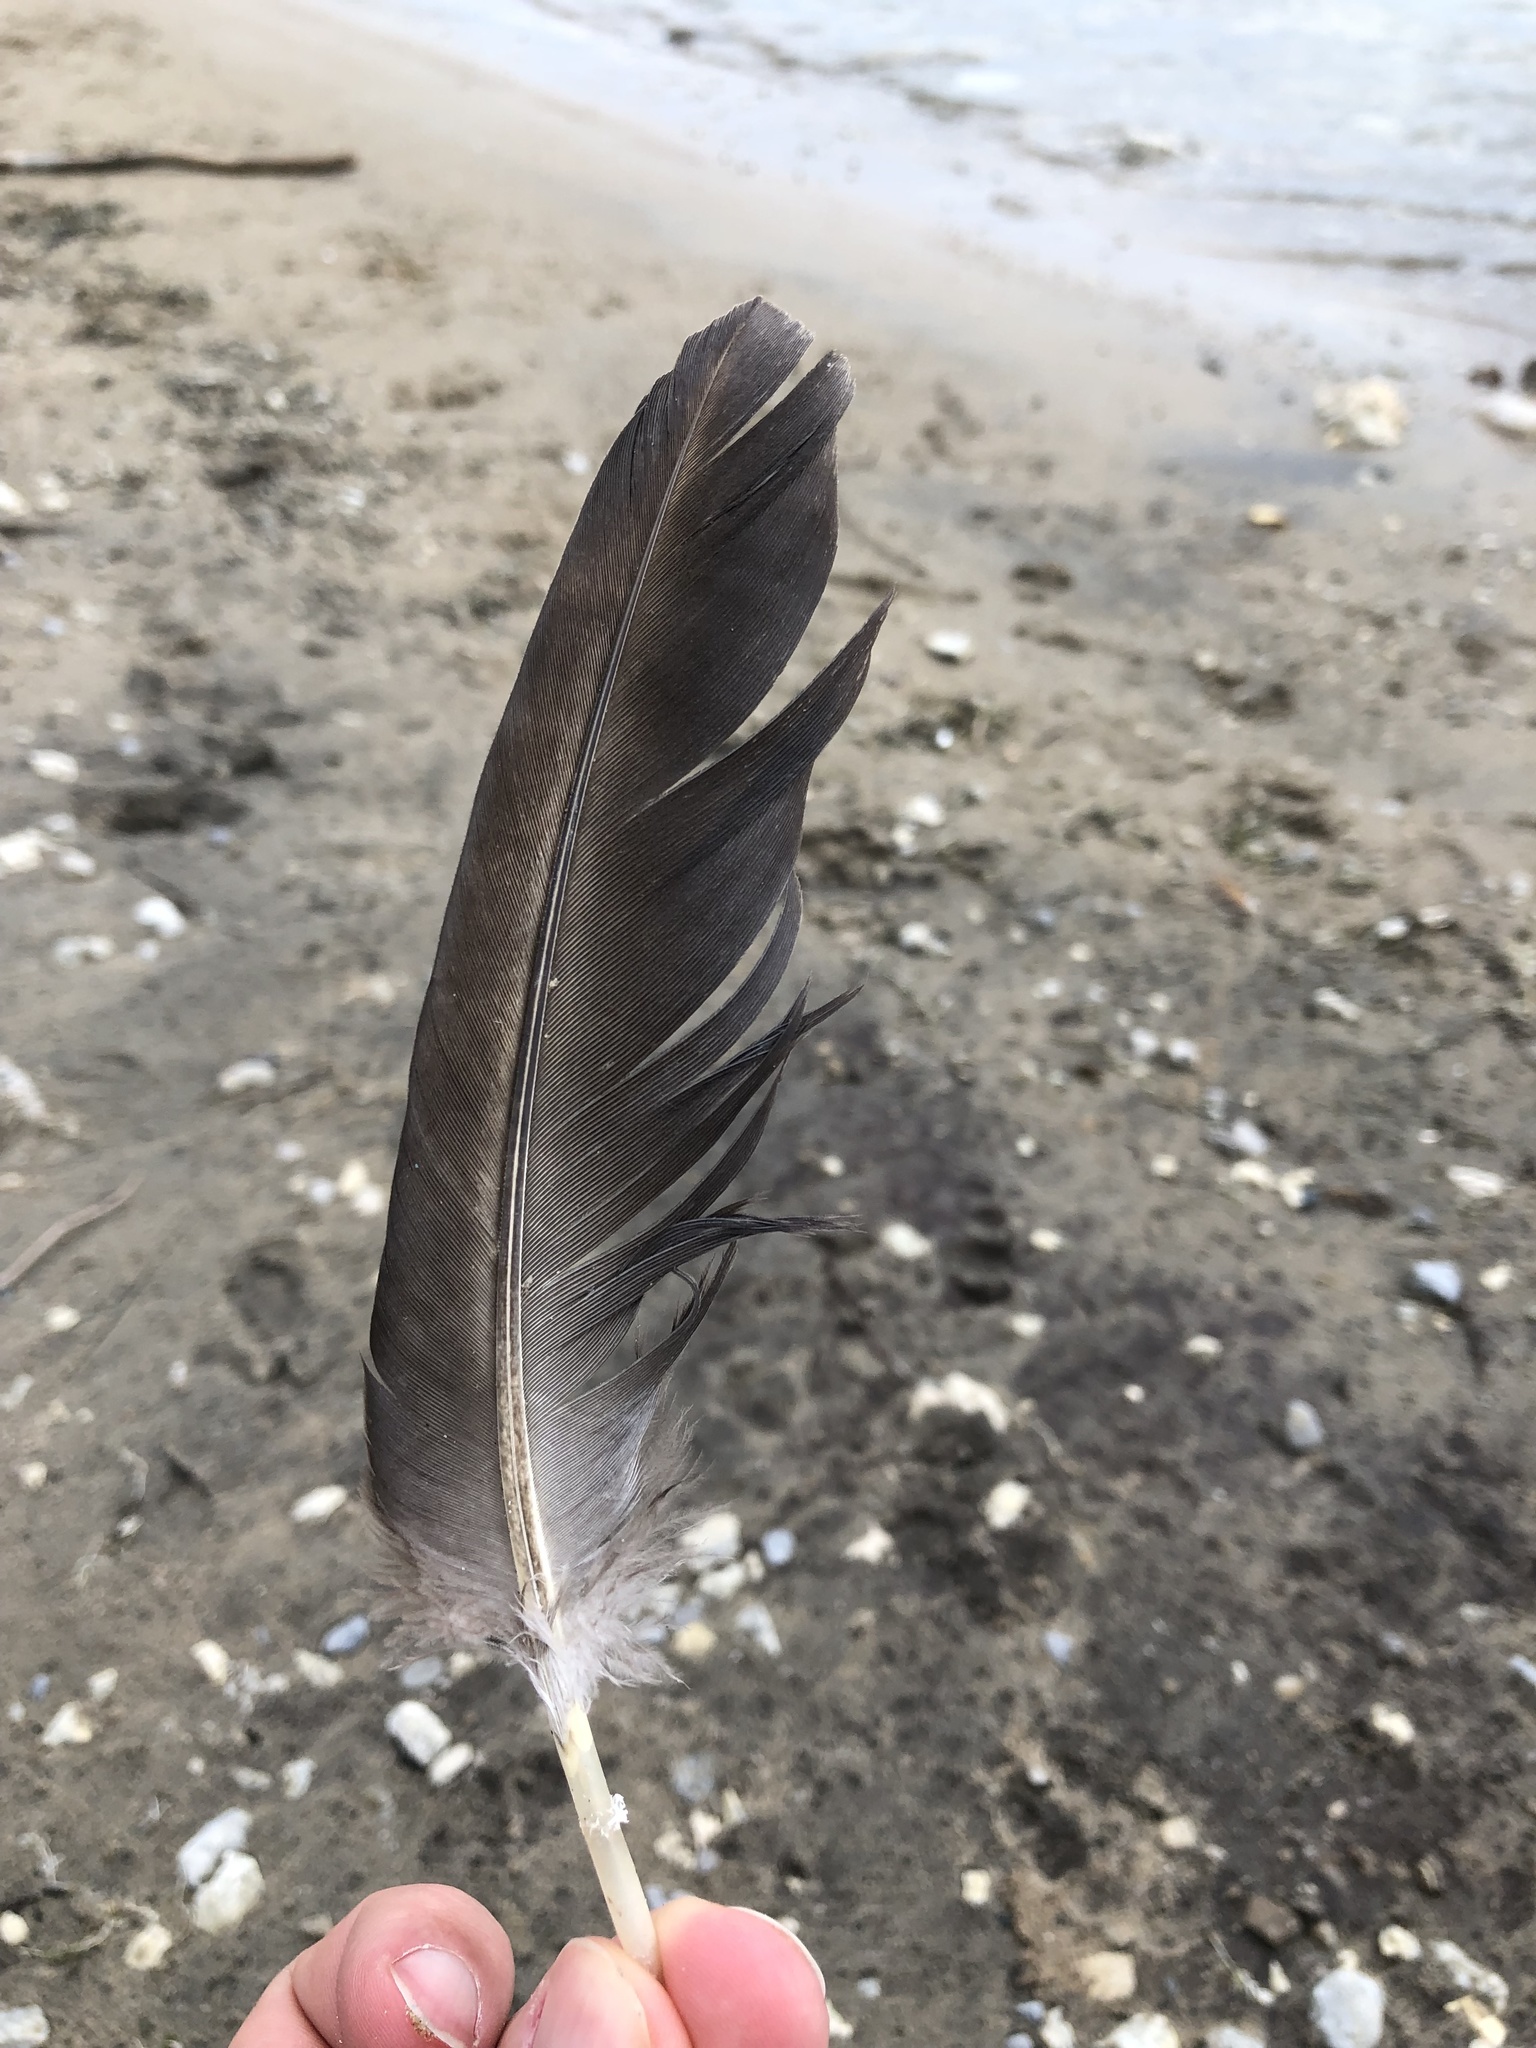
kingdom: Animalia
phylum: Chordata
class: Aves
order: Anseriformes
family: Anatidae
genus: Branta
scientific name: Branta canadensis
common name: Canada goose
